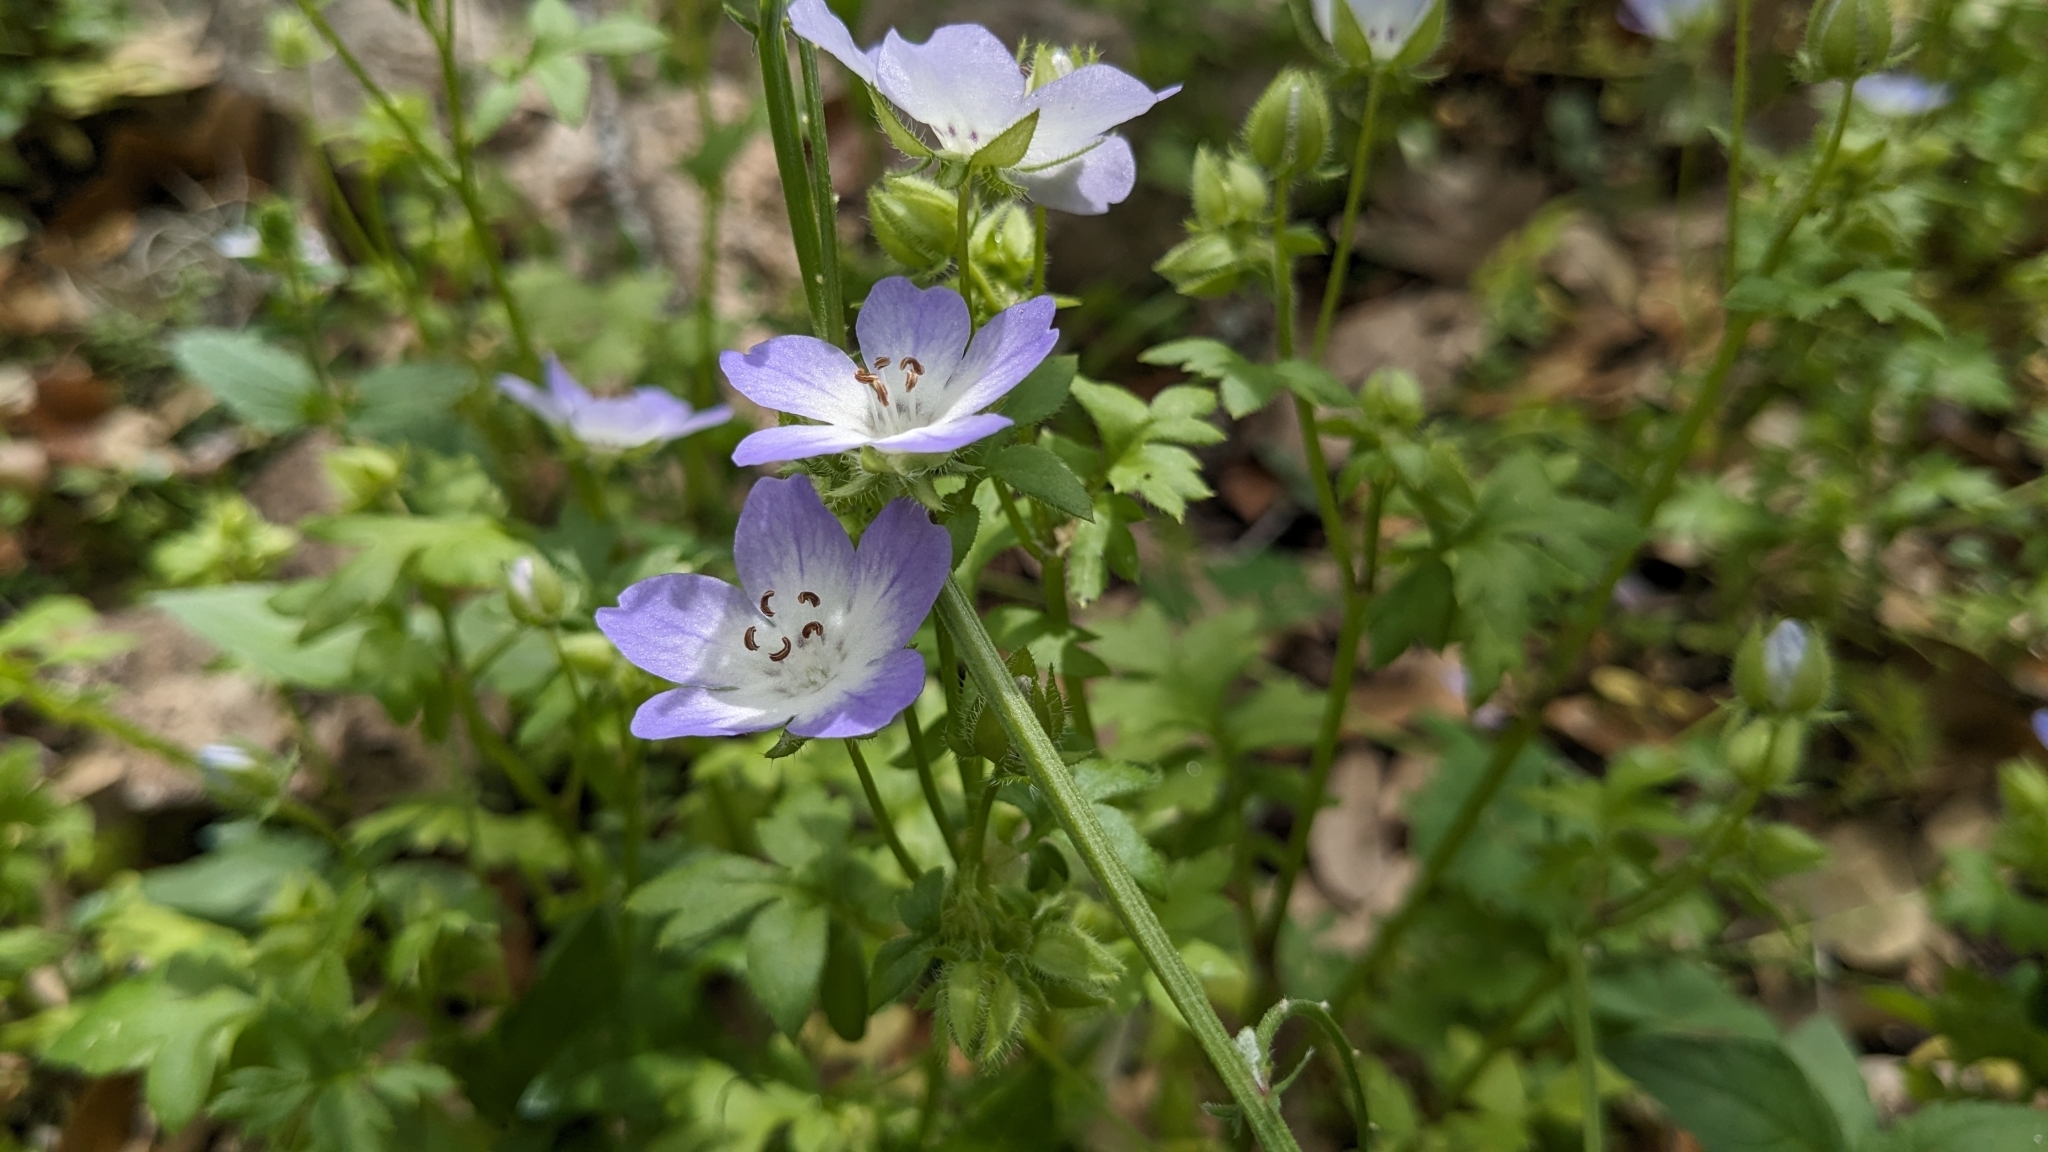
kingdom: Plantae
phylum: Tracheophyta
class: Magnoliopsida
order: Boraginales
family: Hydrophyllaceae
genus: Nemophila
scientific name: Nemophila phacelioides
